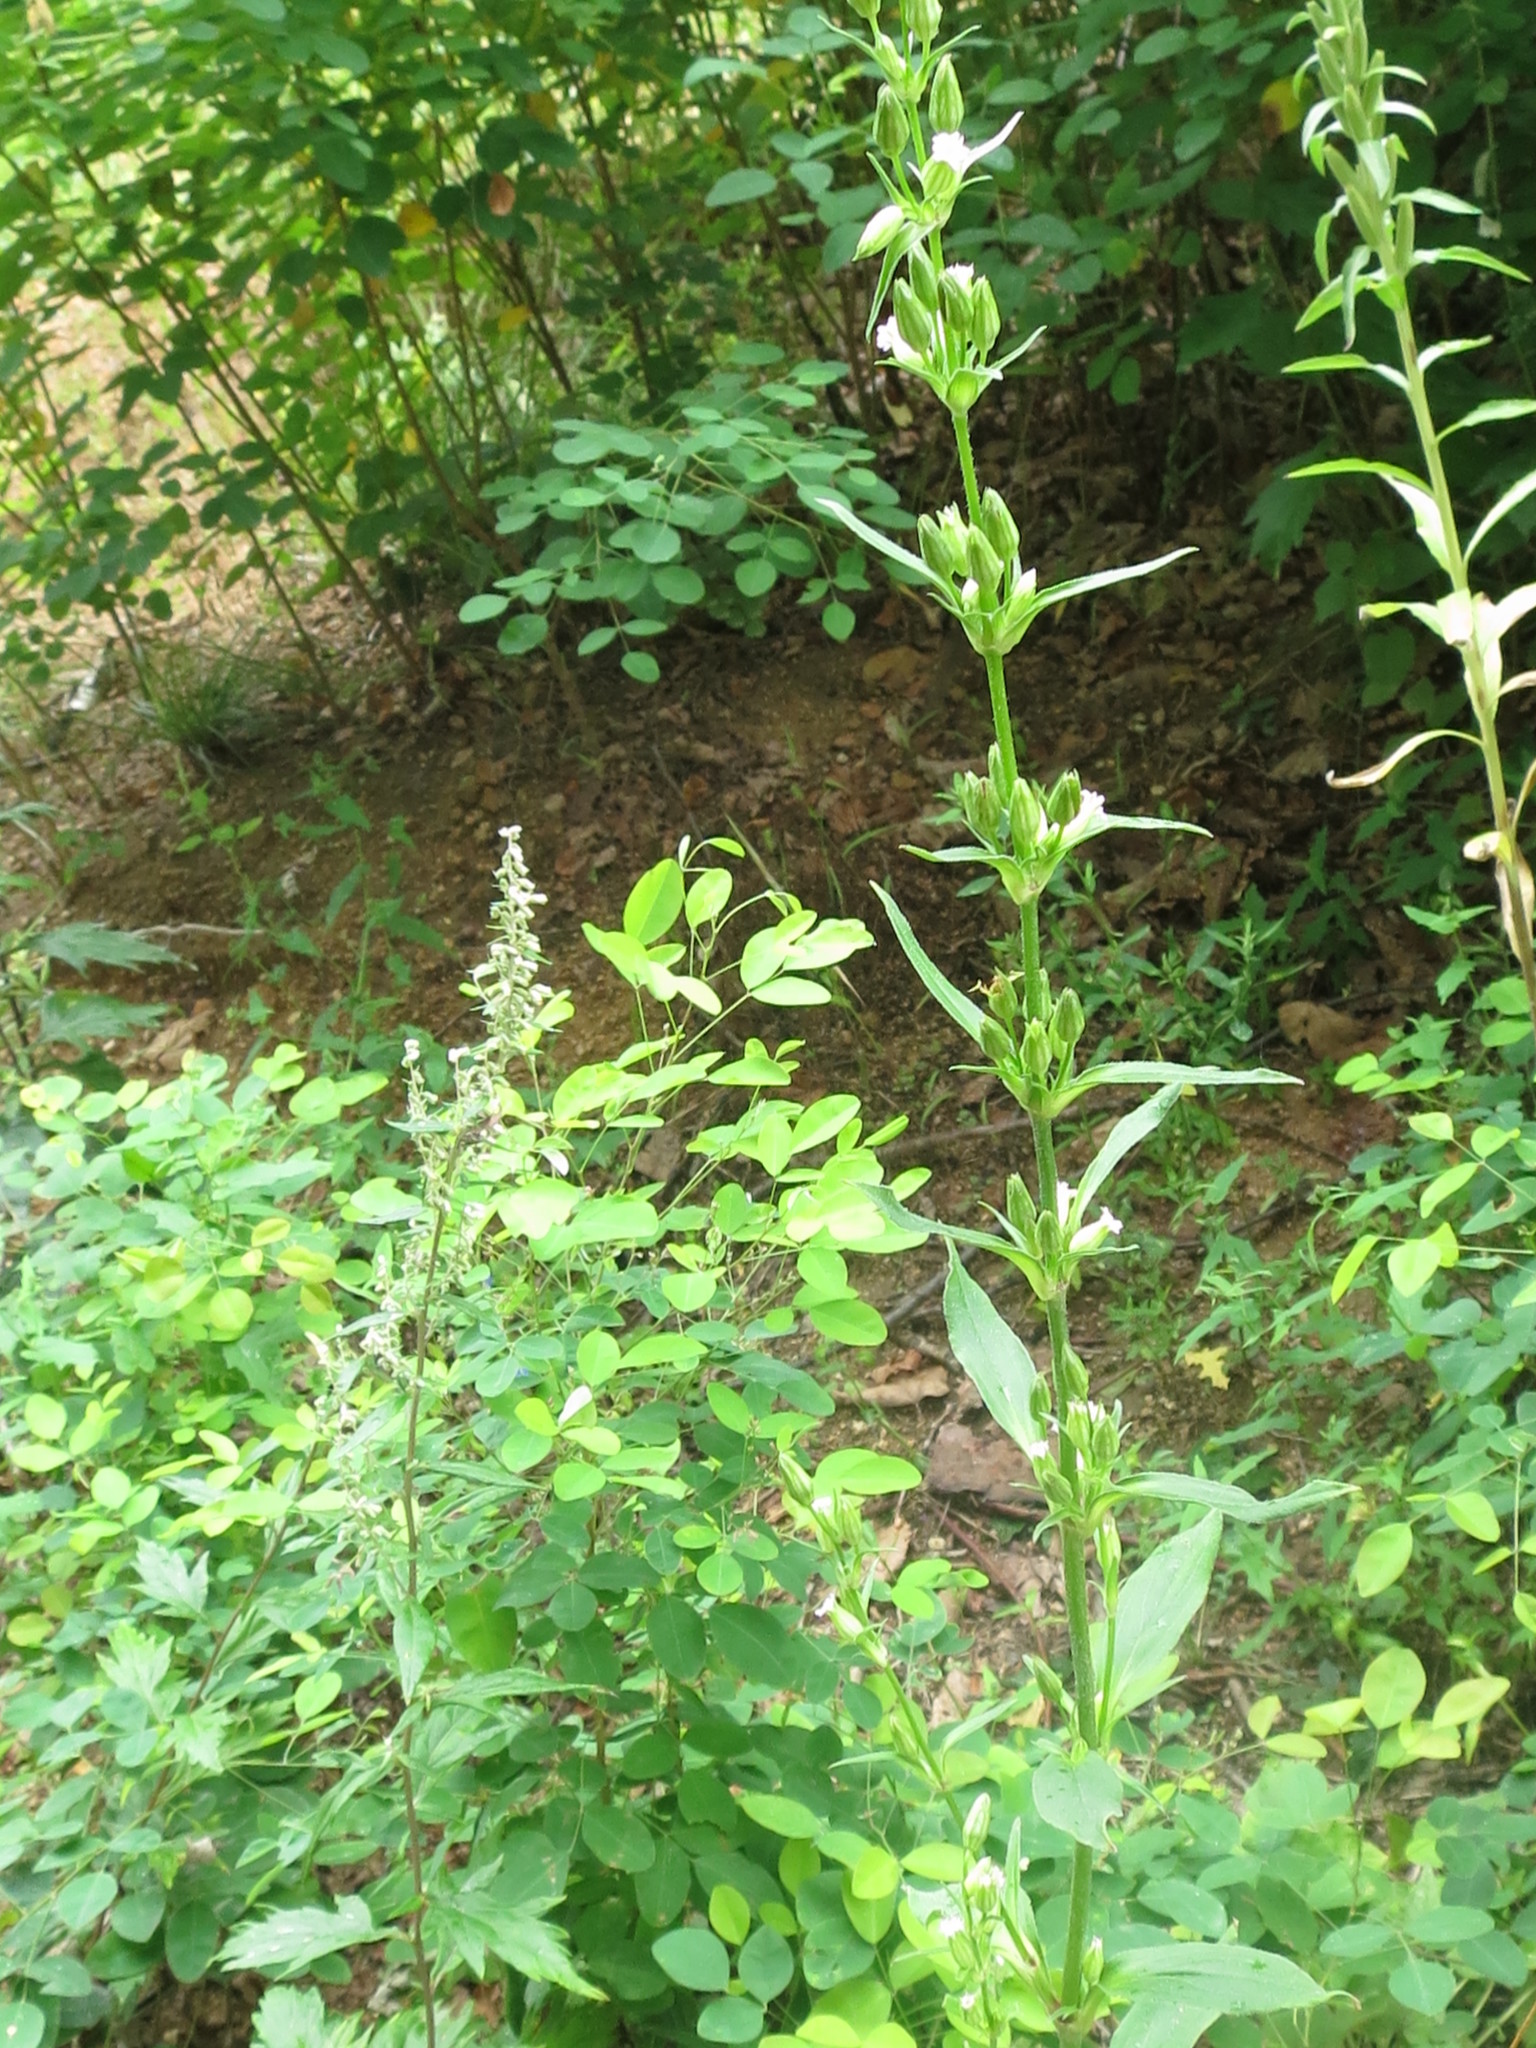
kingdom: Plantae
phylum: Tracheophyta
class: Magnoliopsida
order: Caryophyllales
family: Caryophyllaceae
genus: Silene
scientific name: Silene firma
